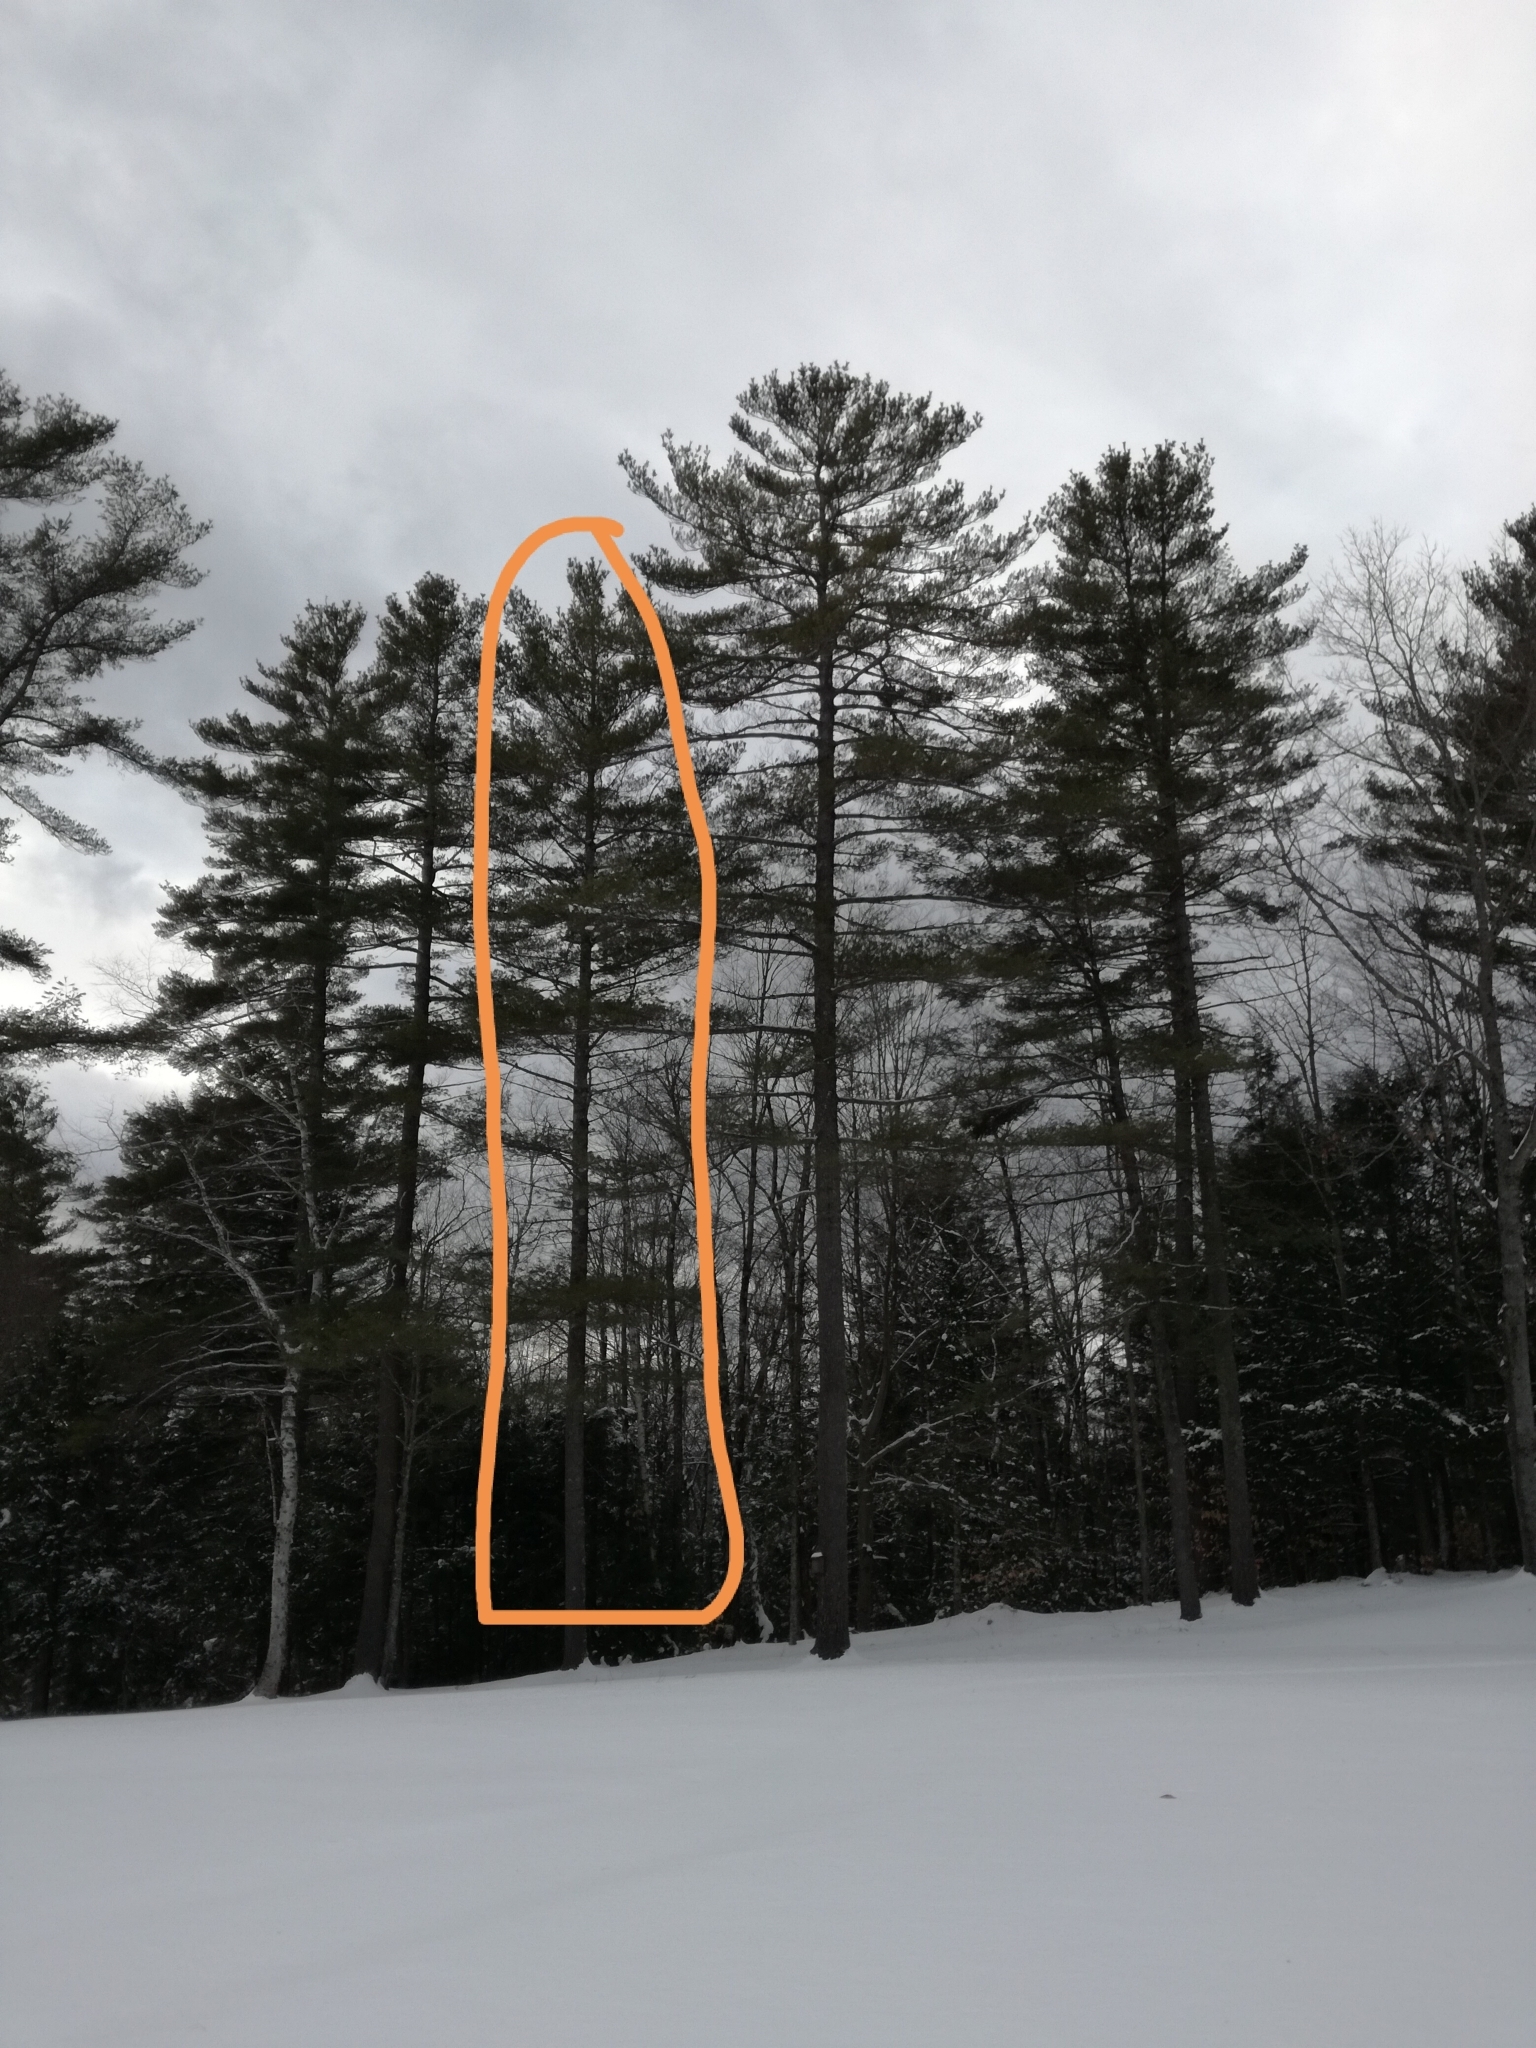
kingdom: Plantae
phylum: Tracheophyta
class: Pinopsida
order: Pinales
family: Pinaceae
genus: Pinus
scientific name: Pinus strobus
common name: Weymouth pine
